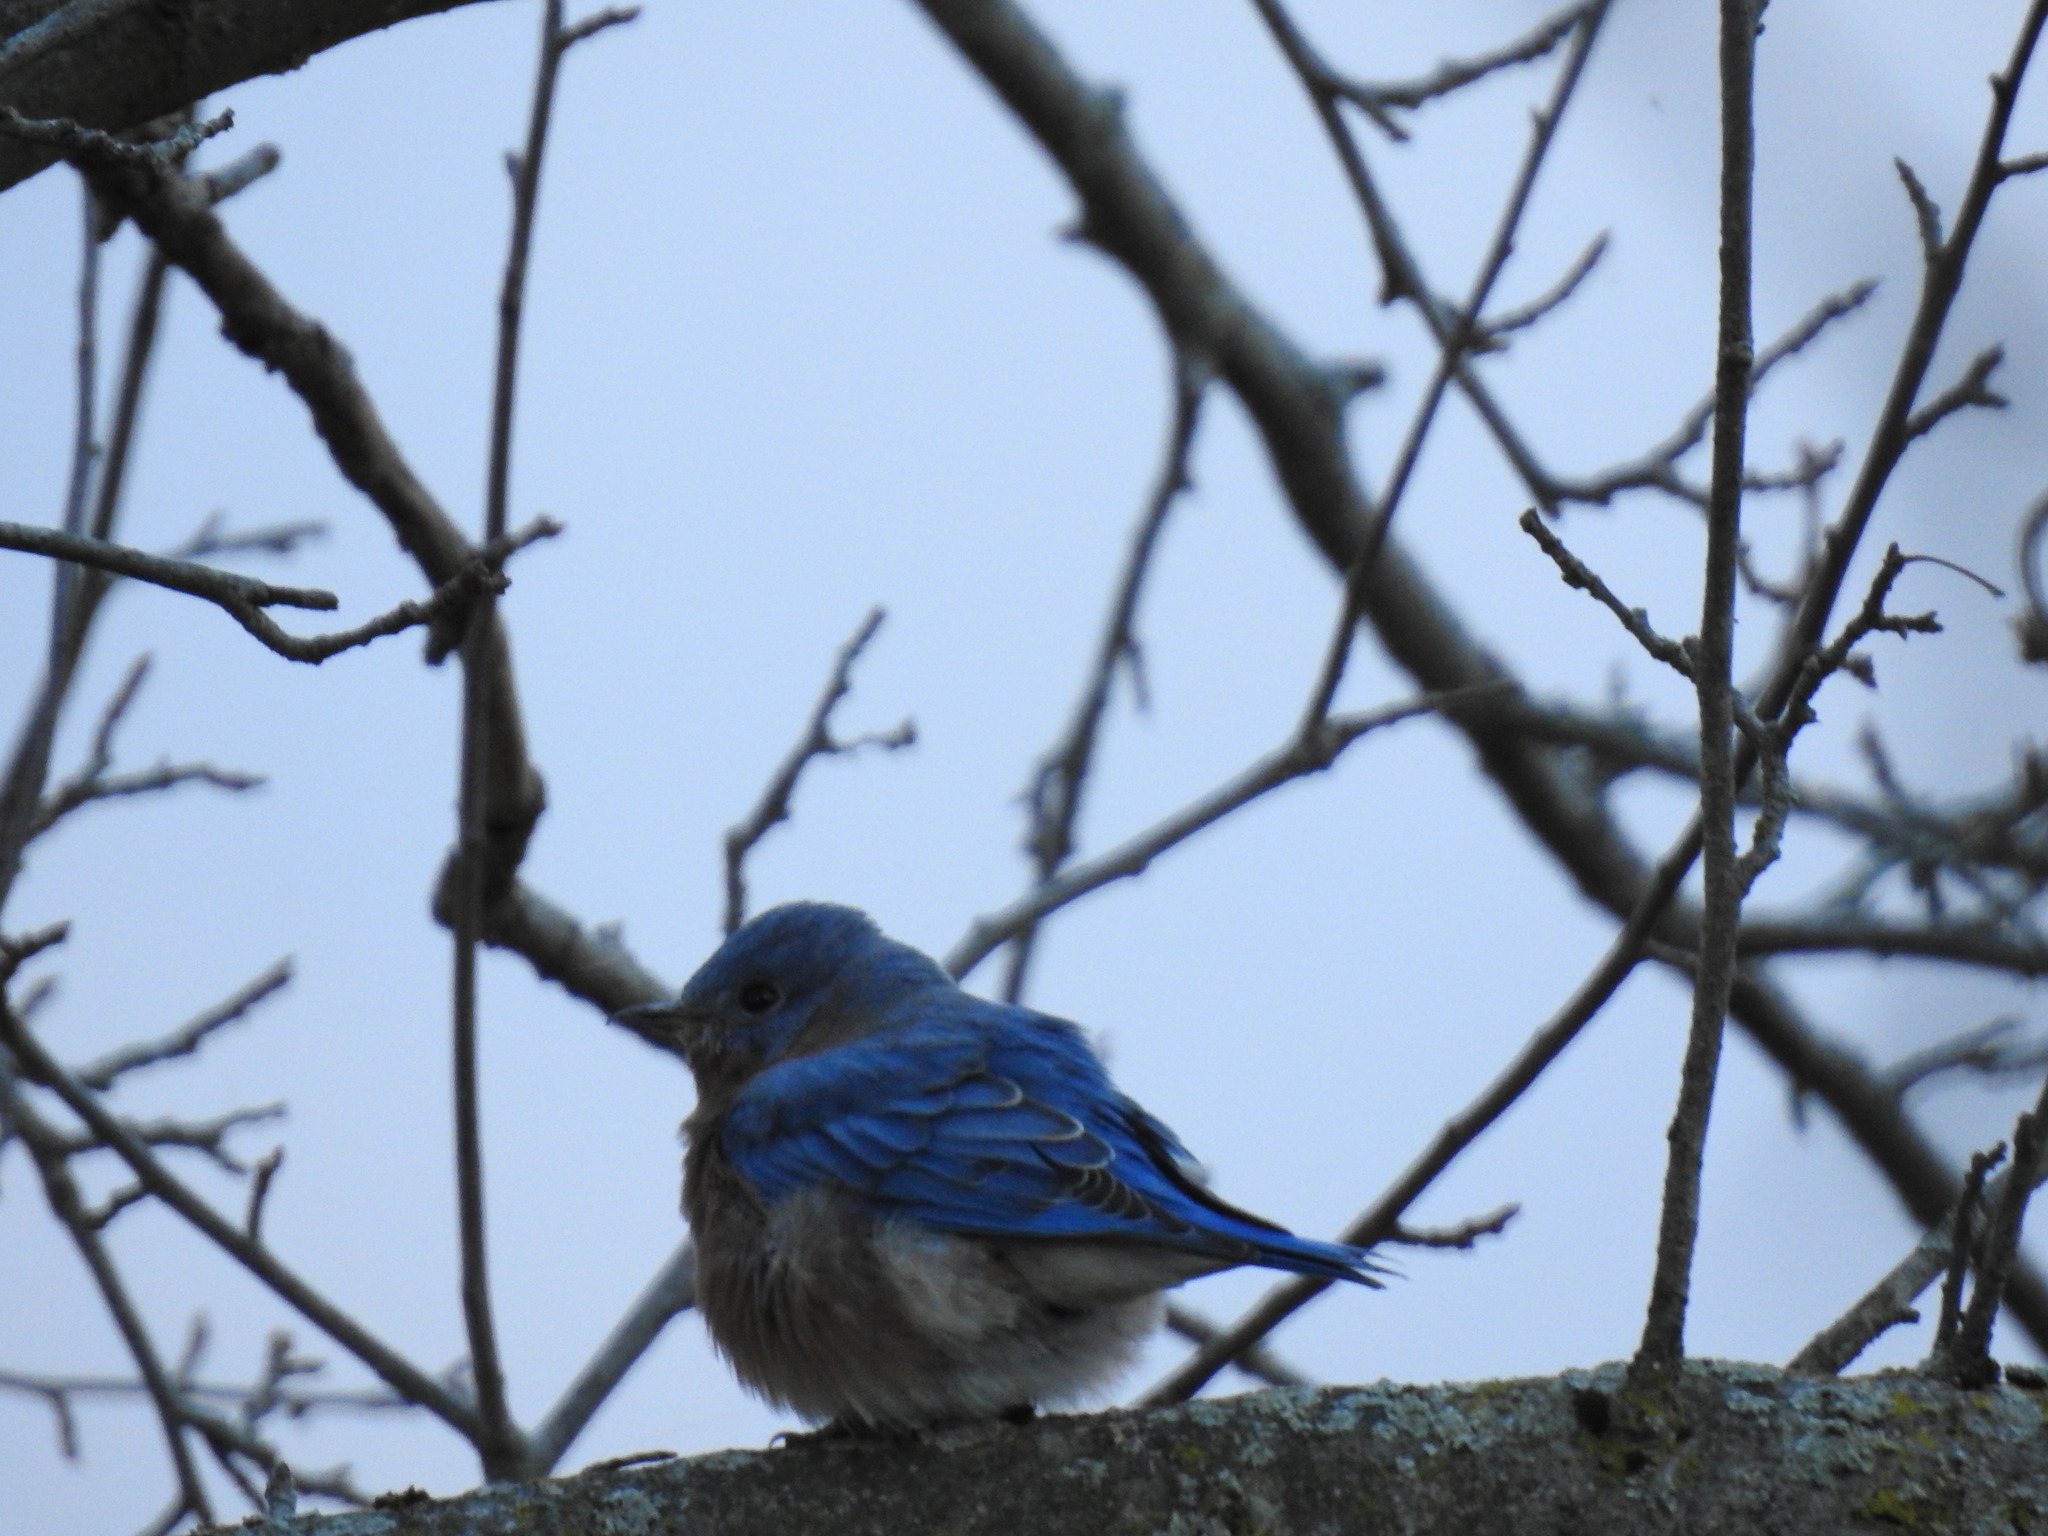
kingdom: Animalia
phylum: Chordata
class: Aves
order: Passeriformes
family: Turdidae
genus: Sialia
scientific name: Sialia sialis
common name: Eastern bluebird
